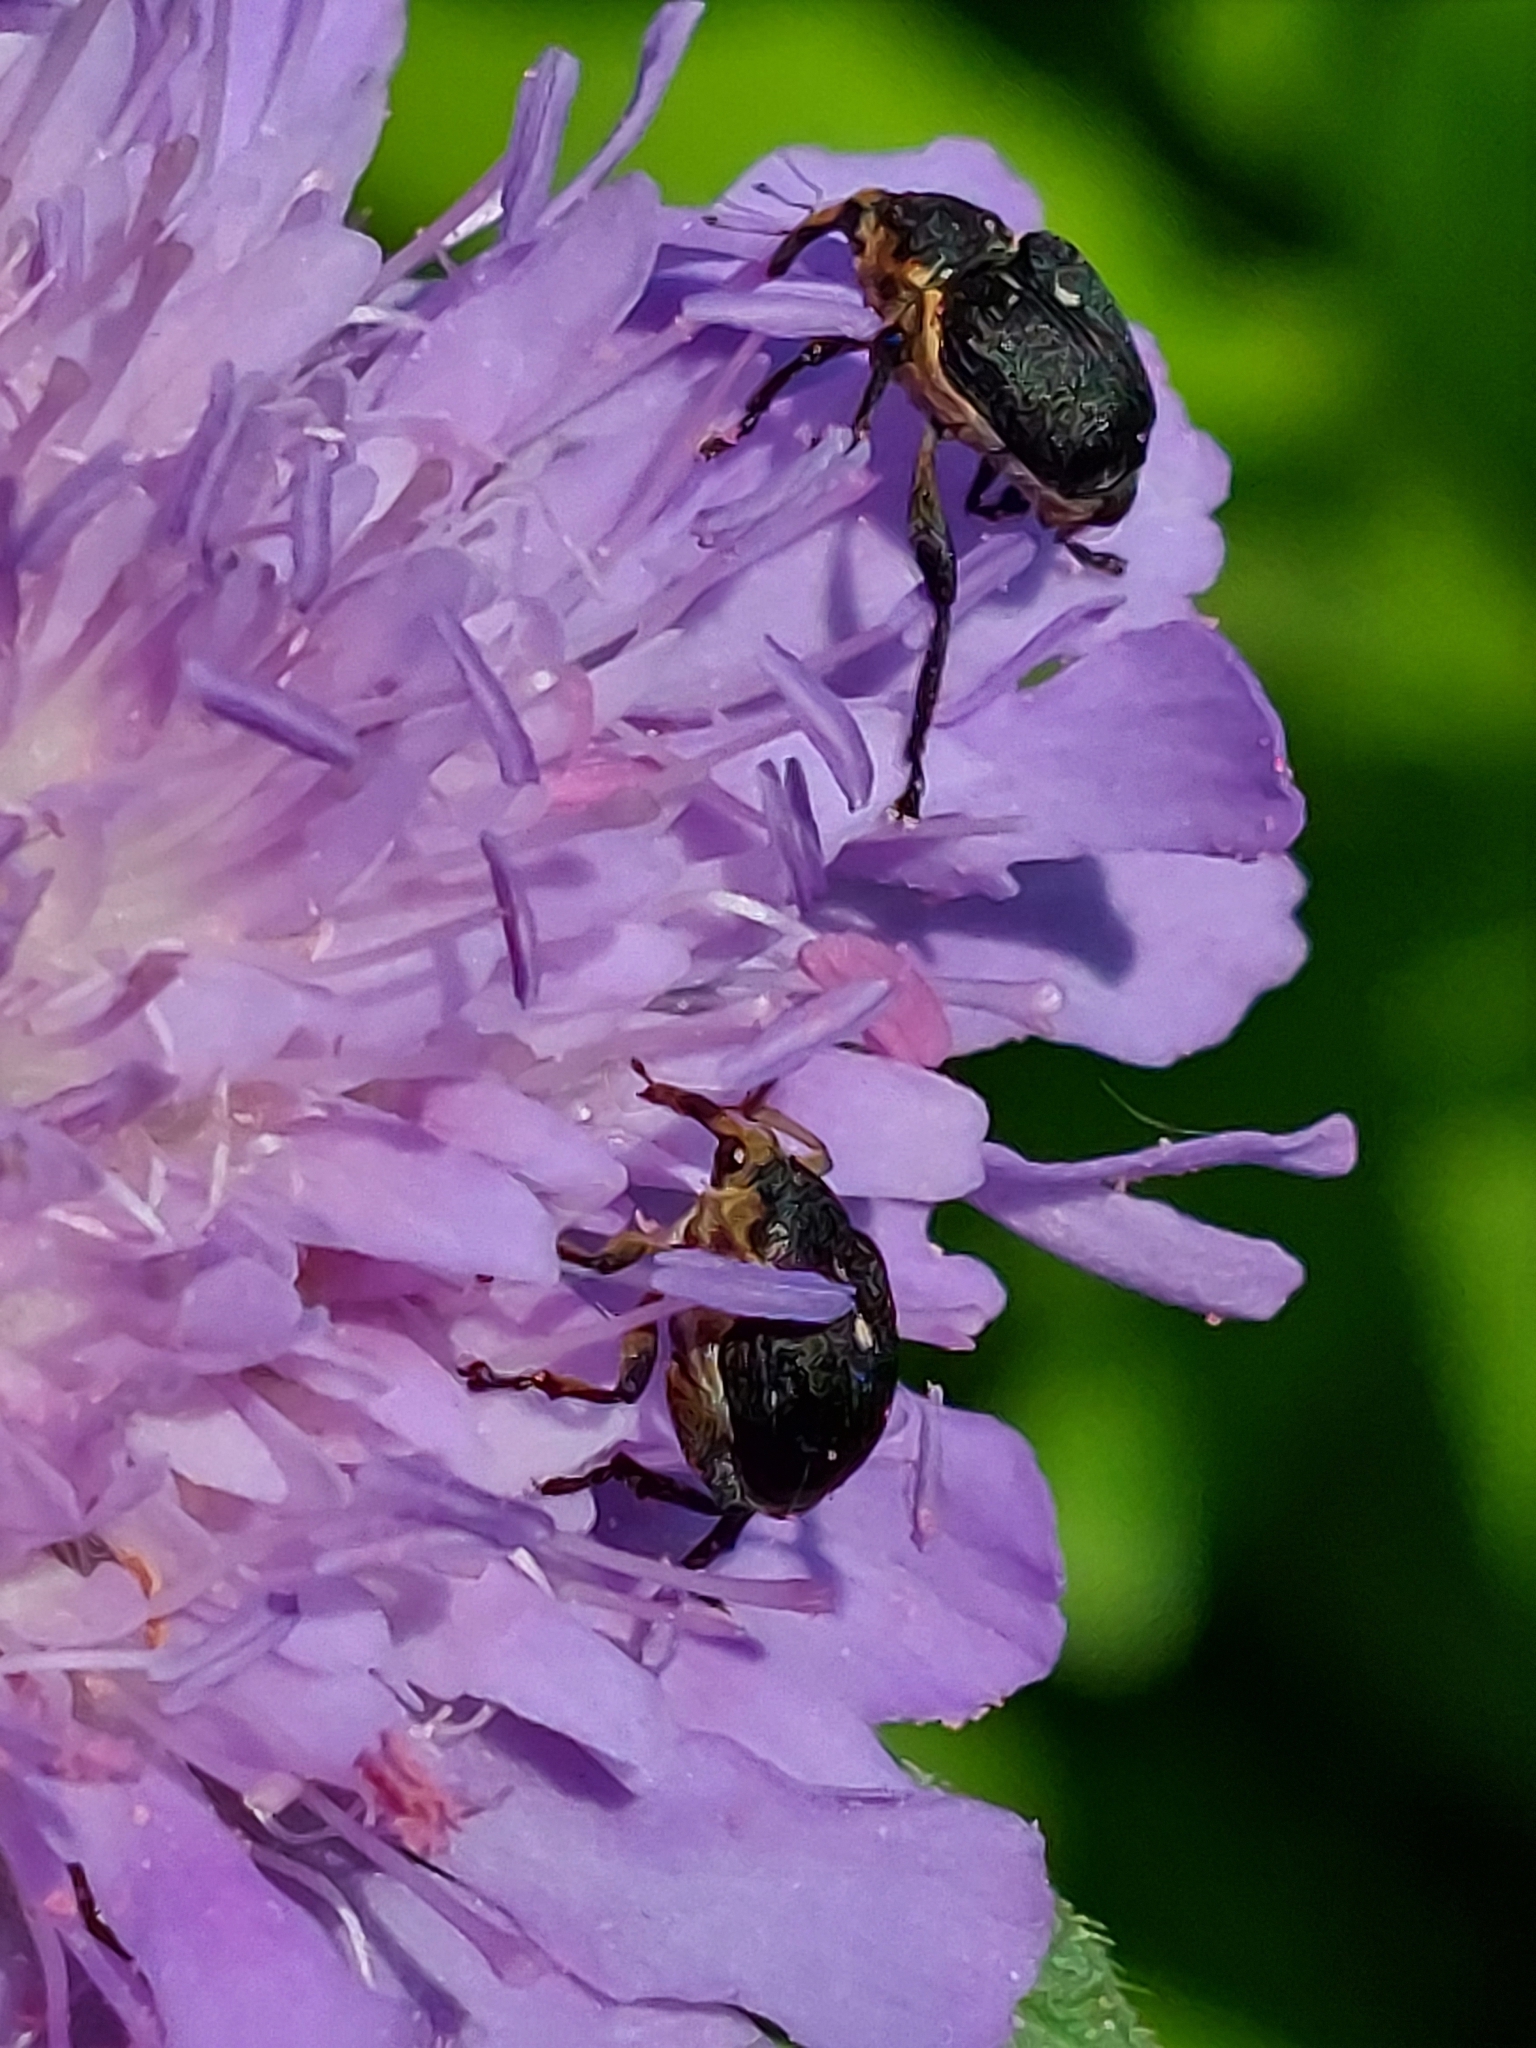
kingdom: Animalia
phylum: Arthropoda
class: Insecta
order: Coleoptera
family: Curculionidae
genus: Mononychus
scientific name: Mononychus punctumalbum
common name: Iris weevil
